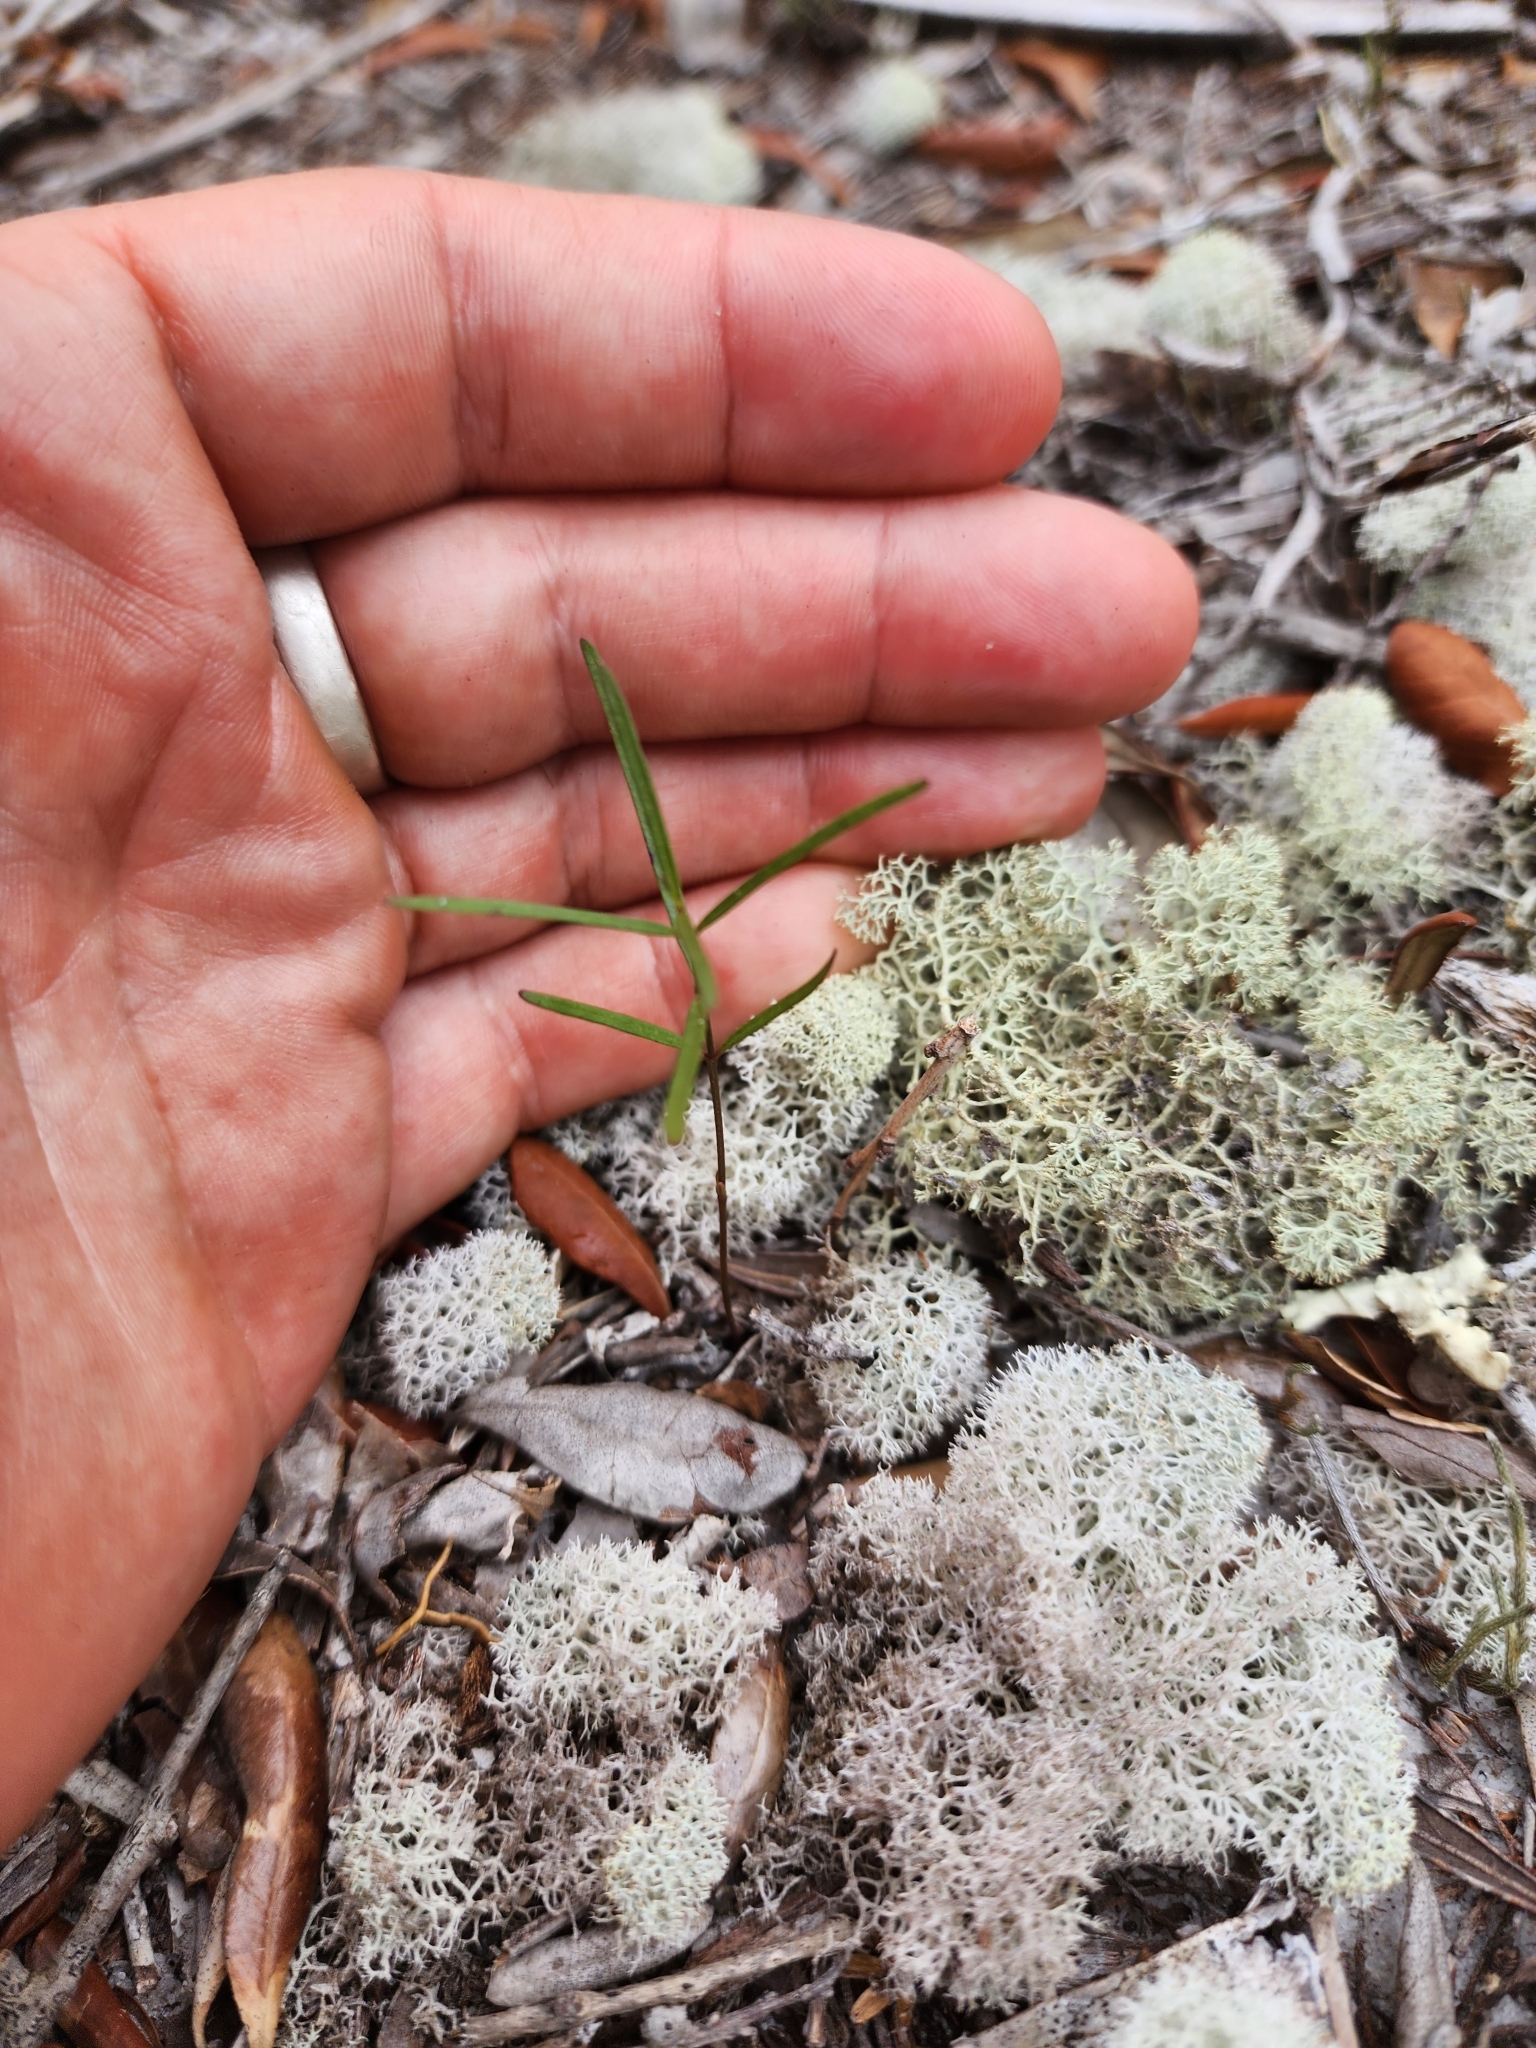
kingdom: Plantae
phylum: Tracheophyta
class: Magnoliopsida
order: Gentianales
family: Apocynaceae
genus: Asclepias
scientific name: Asclepias curtissii
